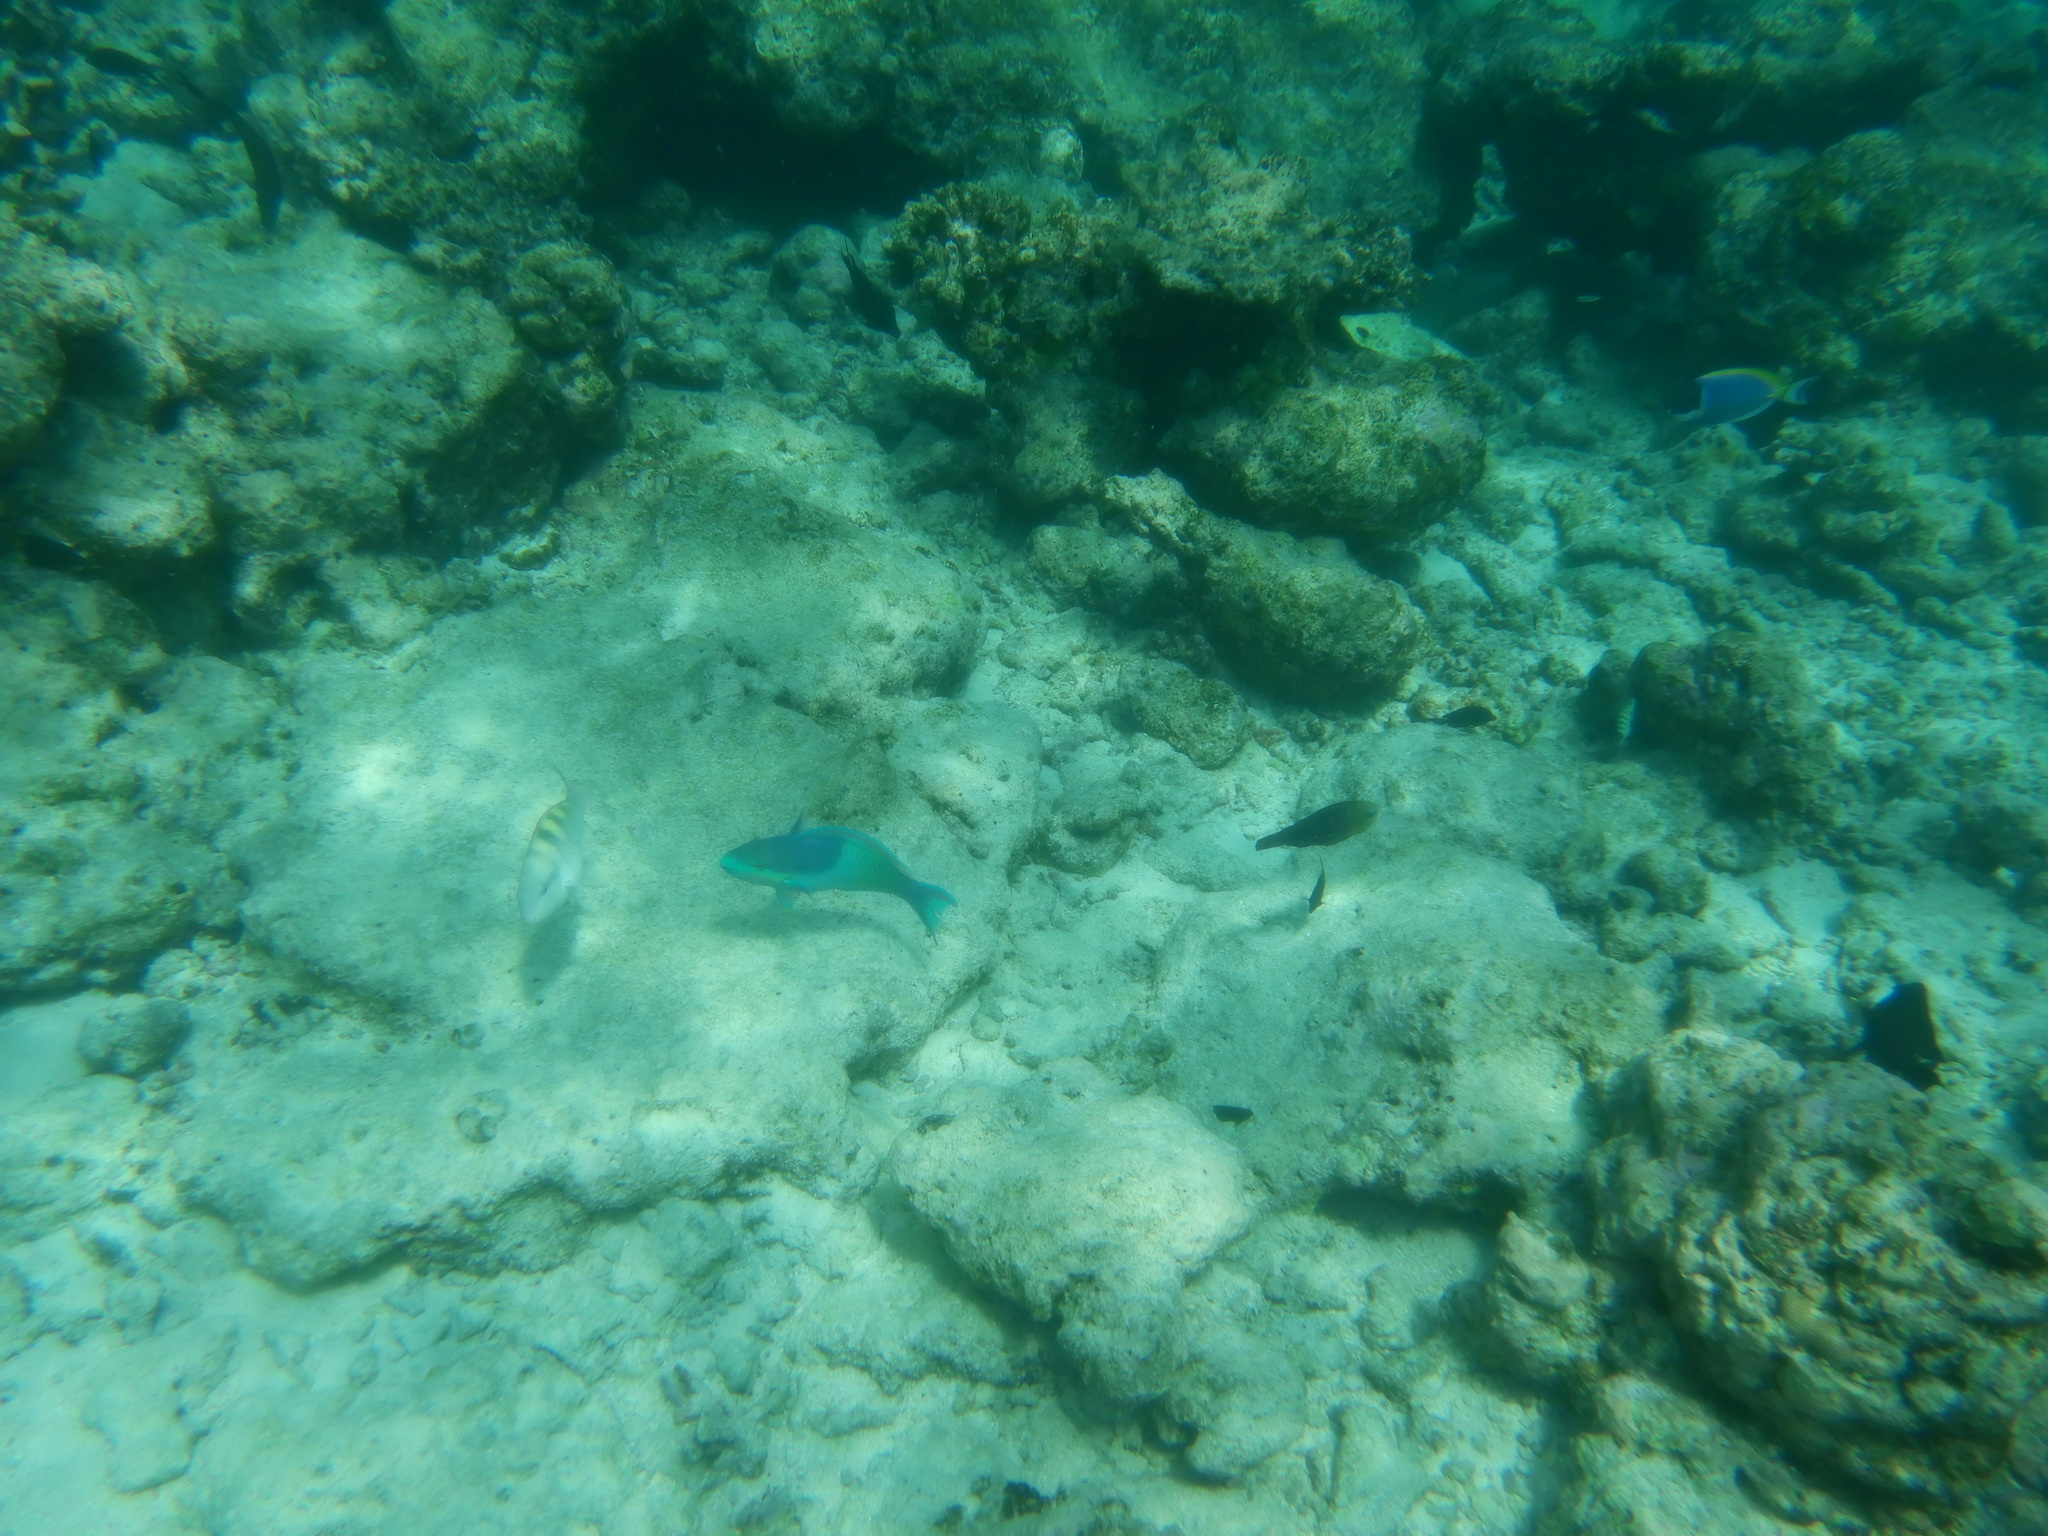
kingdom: Animalia
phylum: Chordata
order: Perciformes
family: Scaridae
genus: Scarus
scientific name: Scarus scaber
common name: Dusky-capped parrotfish
